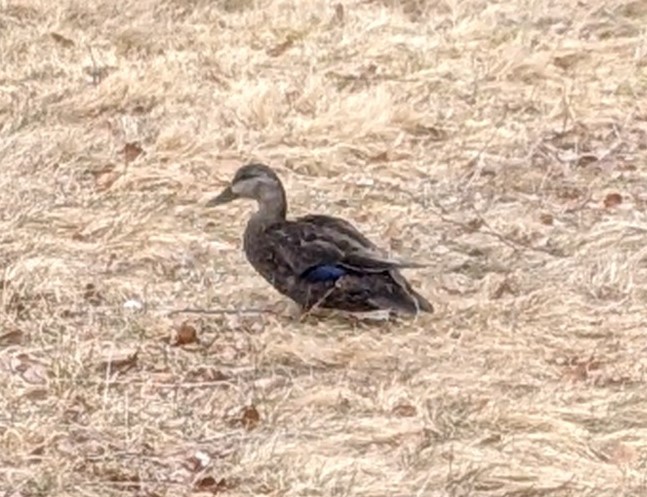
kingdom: Animalia
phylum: Chordata
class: Aves
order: Anseriformes
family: Anatidae
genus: Anas
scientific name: Anas rubripes
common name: American black duck
